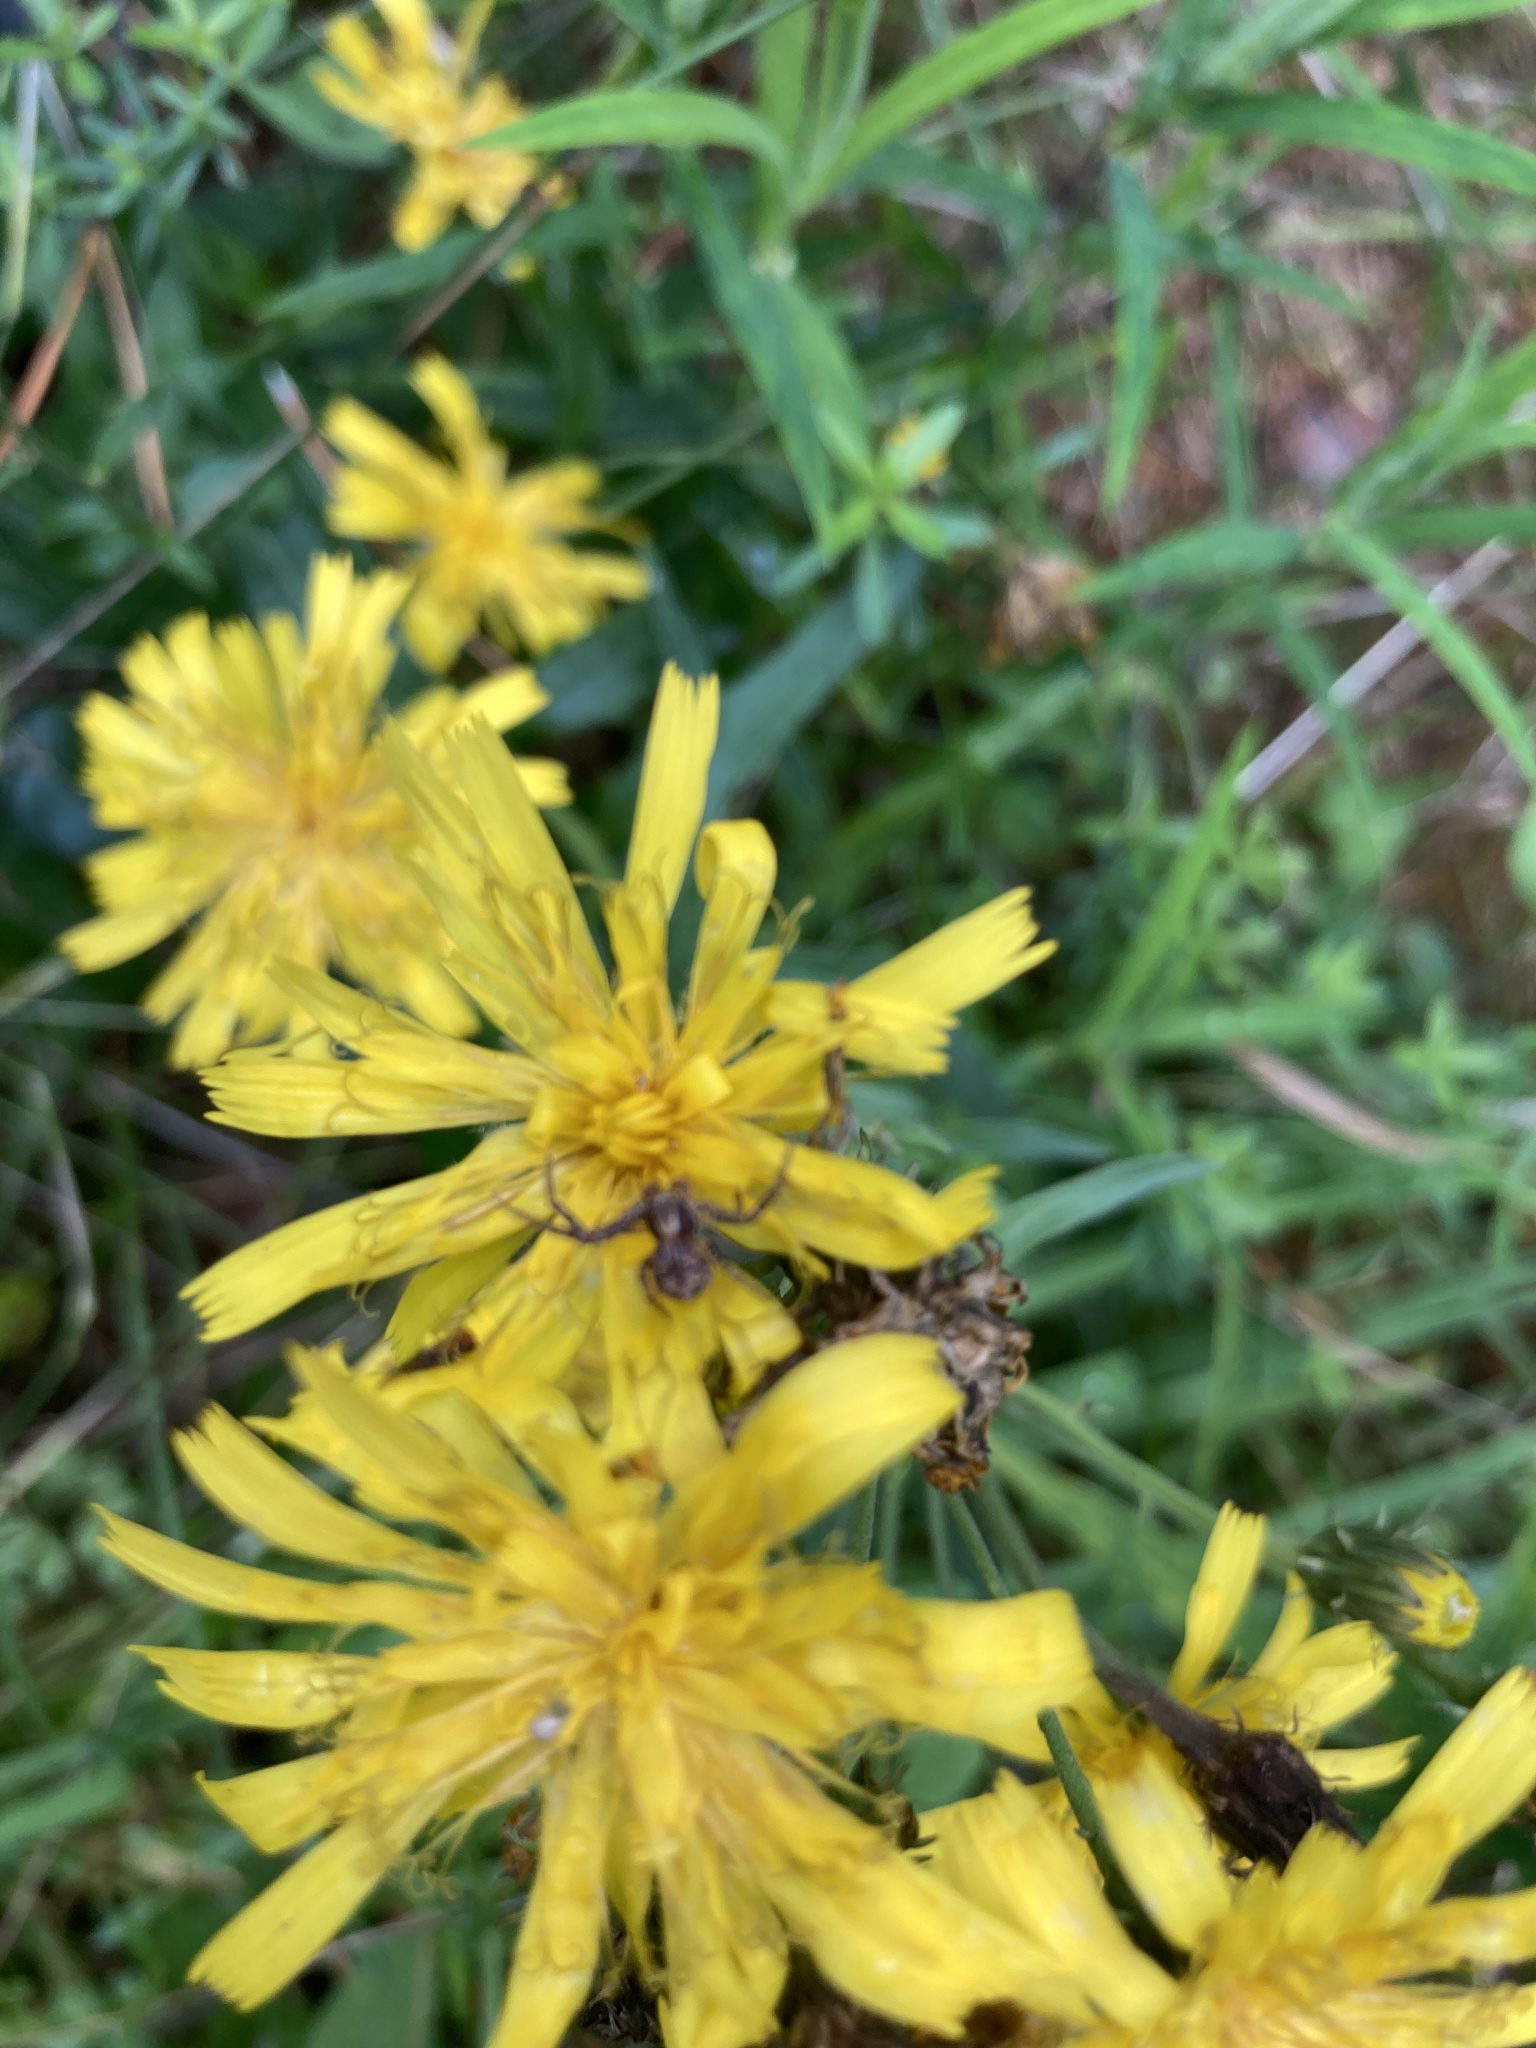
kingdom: Plantae
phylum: Tracheophyta
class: Magnoliopsida
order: Asterales
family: Asteraceae
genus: Hieracium
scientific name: Hieracium umbellatum
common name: Northern hawkweed
